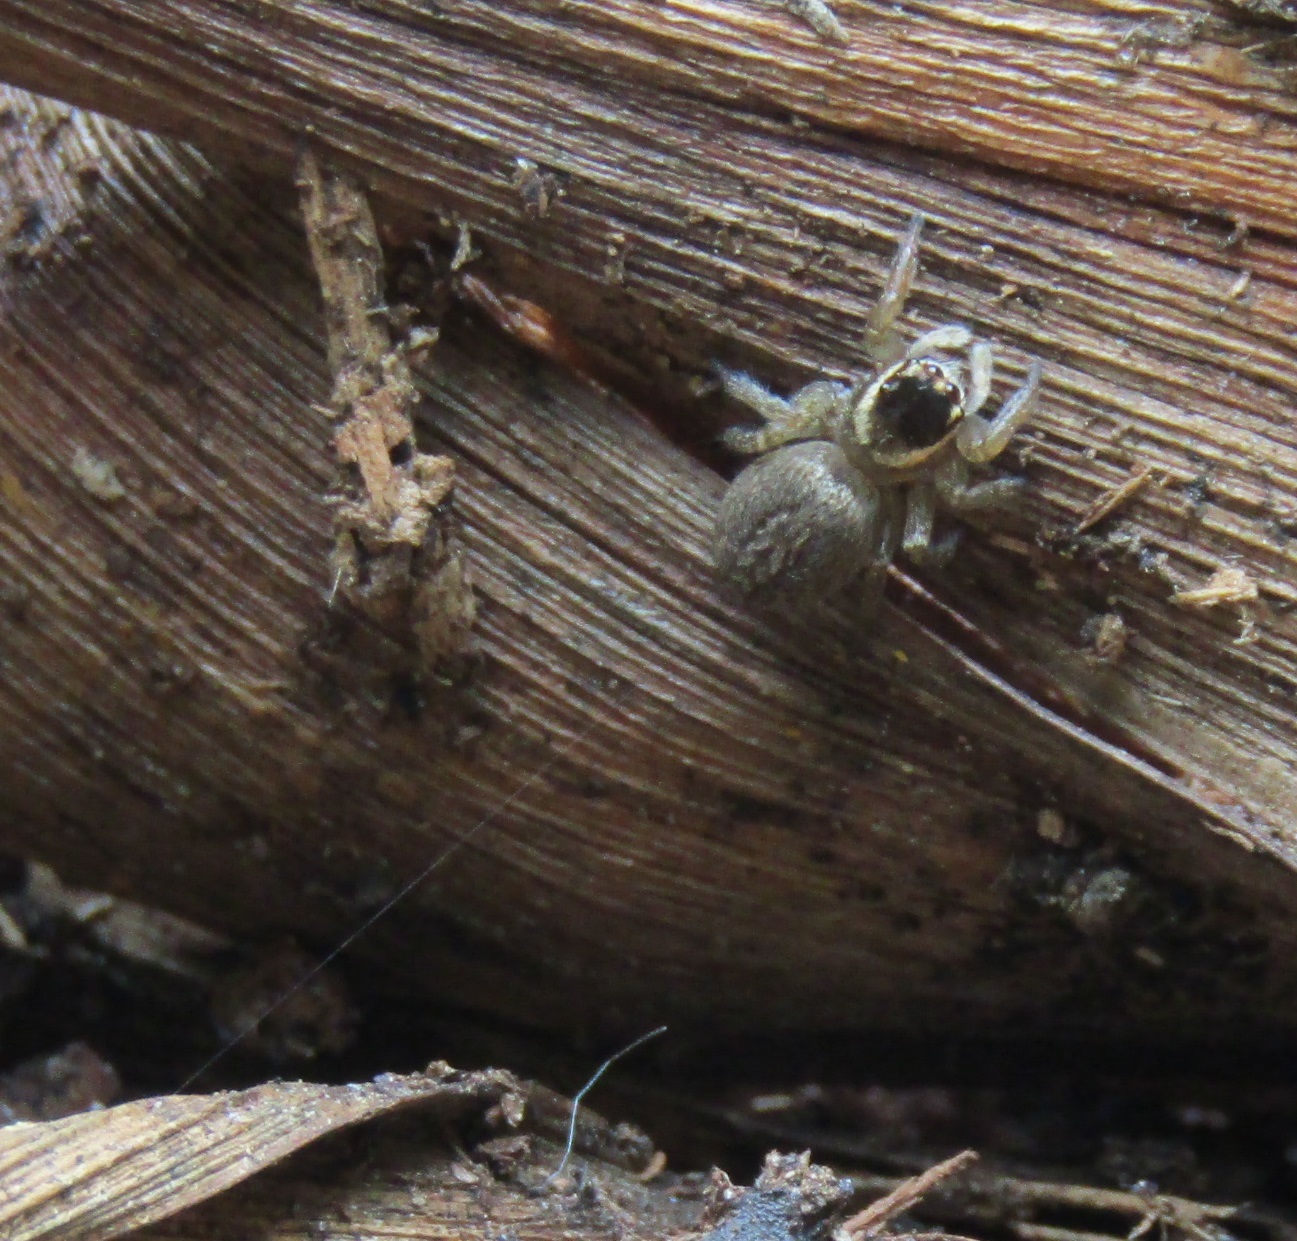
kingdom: Animalia
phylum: Arthropoda
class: Arachnida
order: Araneae
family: Salticidae
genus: Maratus
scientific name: Maratus griseus
